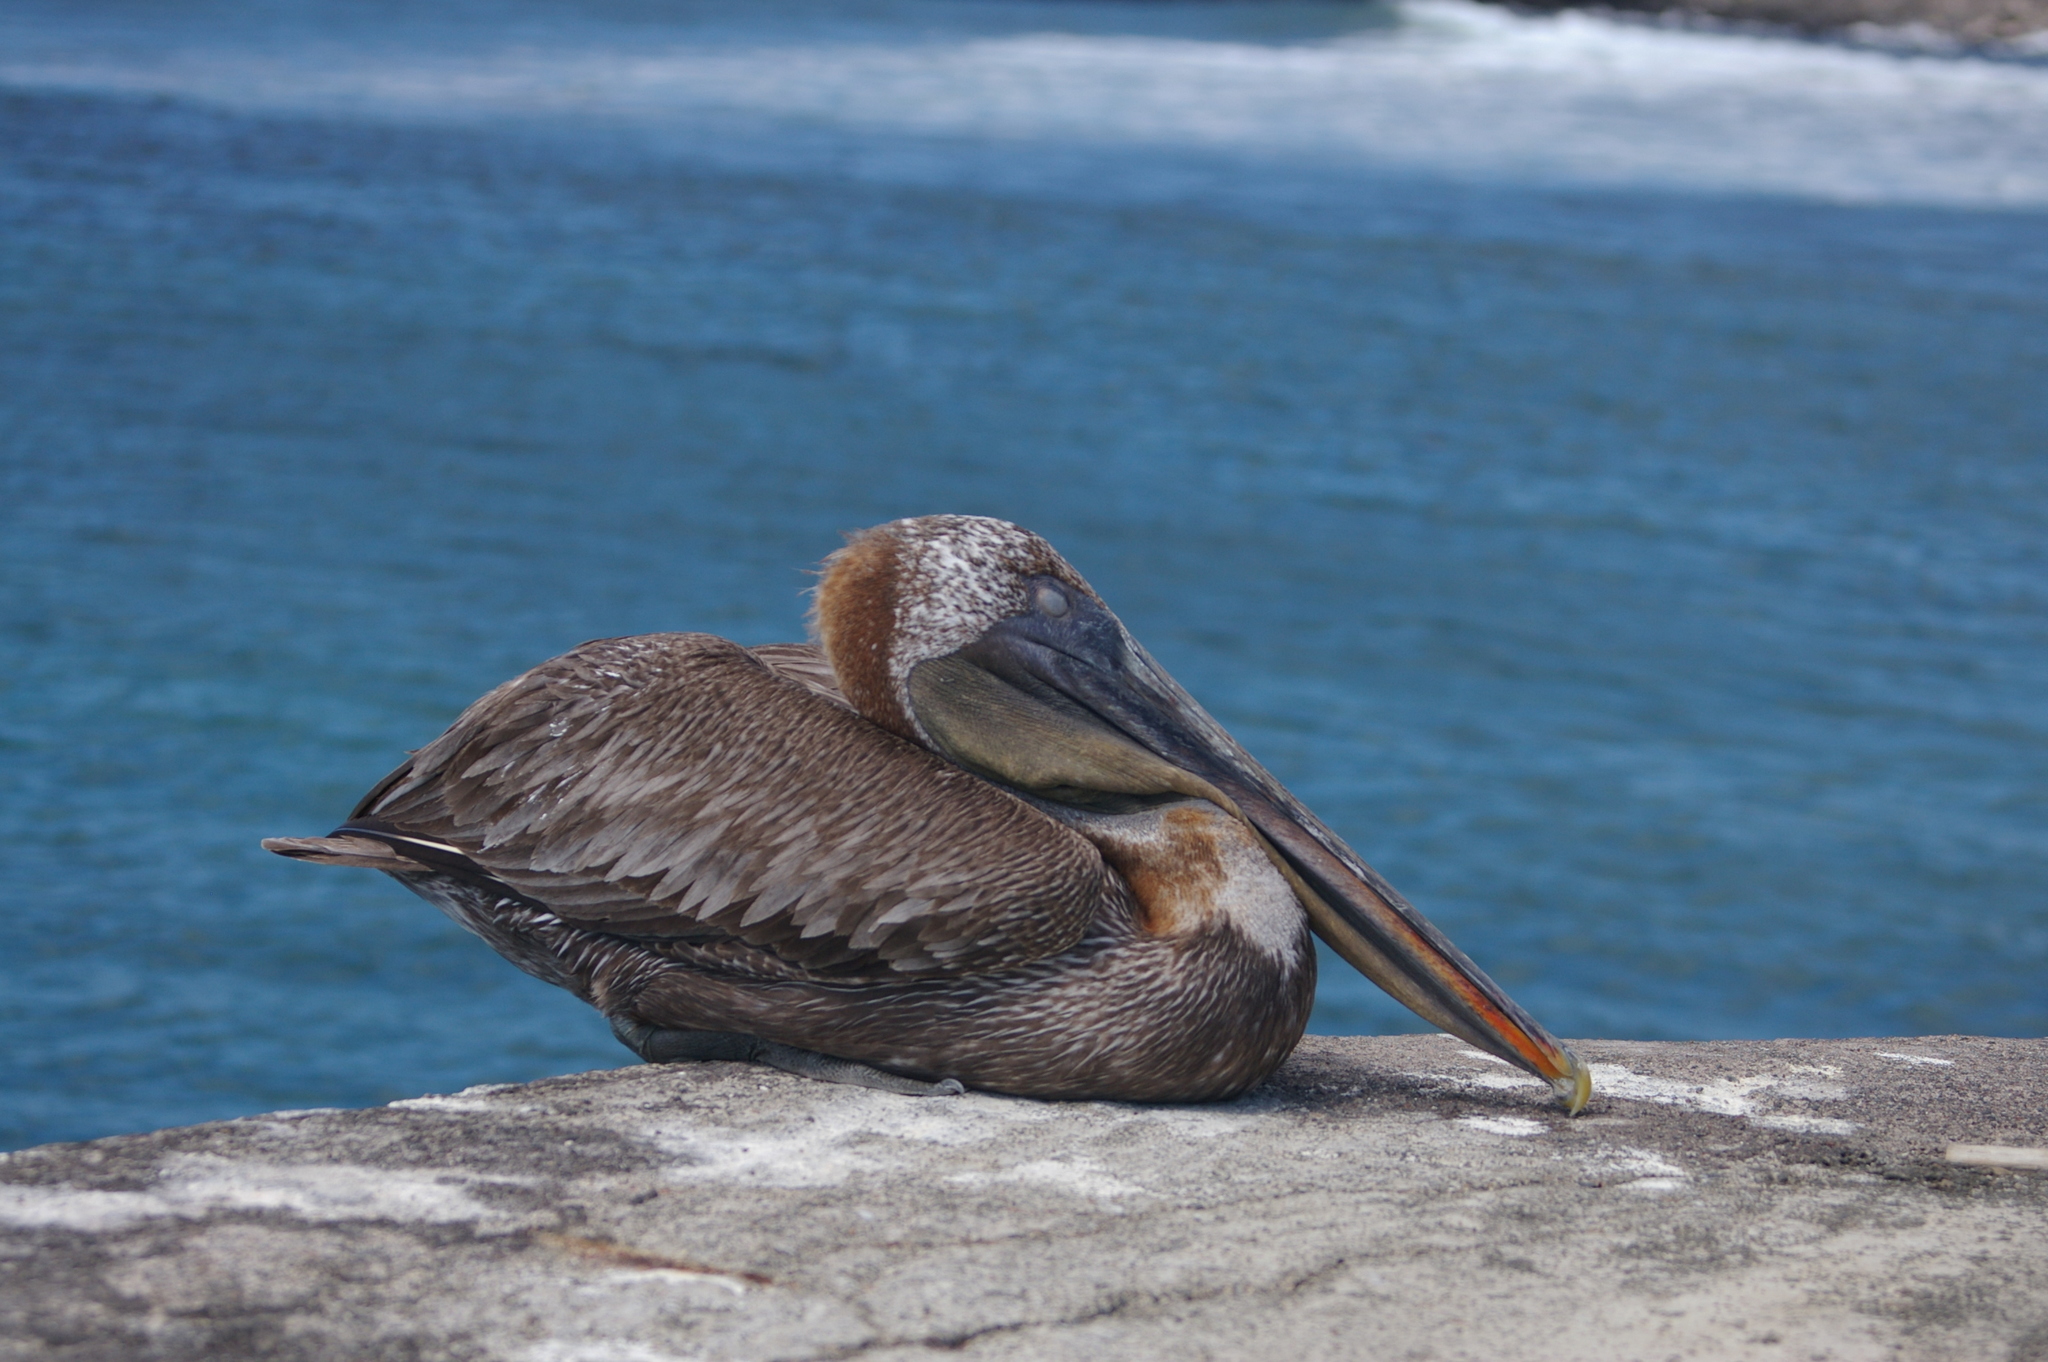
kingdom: Animalia
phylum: Chordata
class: Aves
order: Pelecaniformes
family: Pelecanidae
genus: Pelecanus
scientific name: Pelecanus occidentalis
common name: Brown pelican
